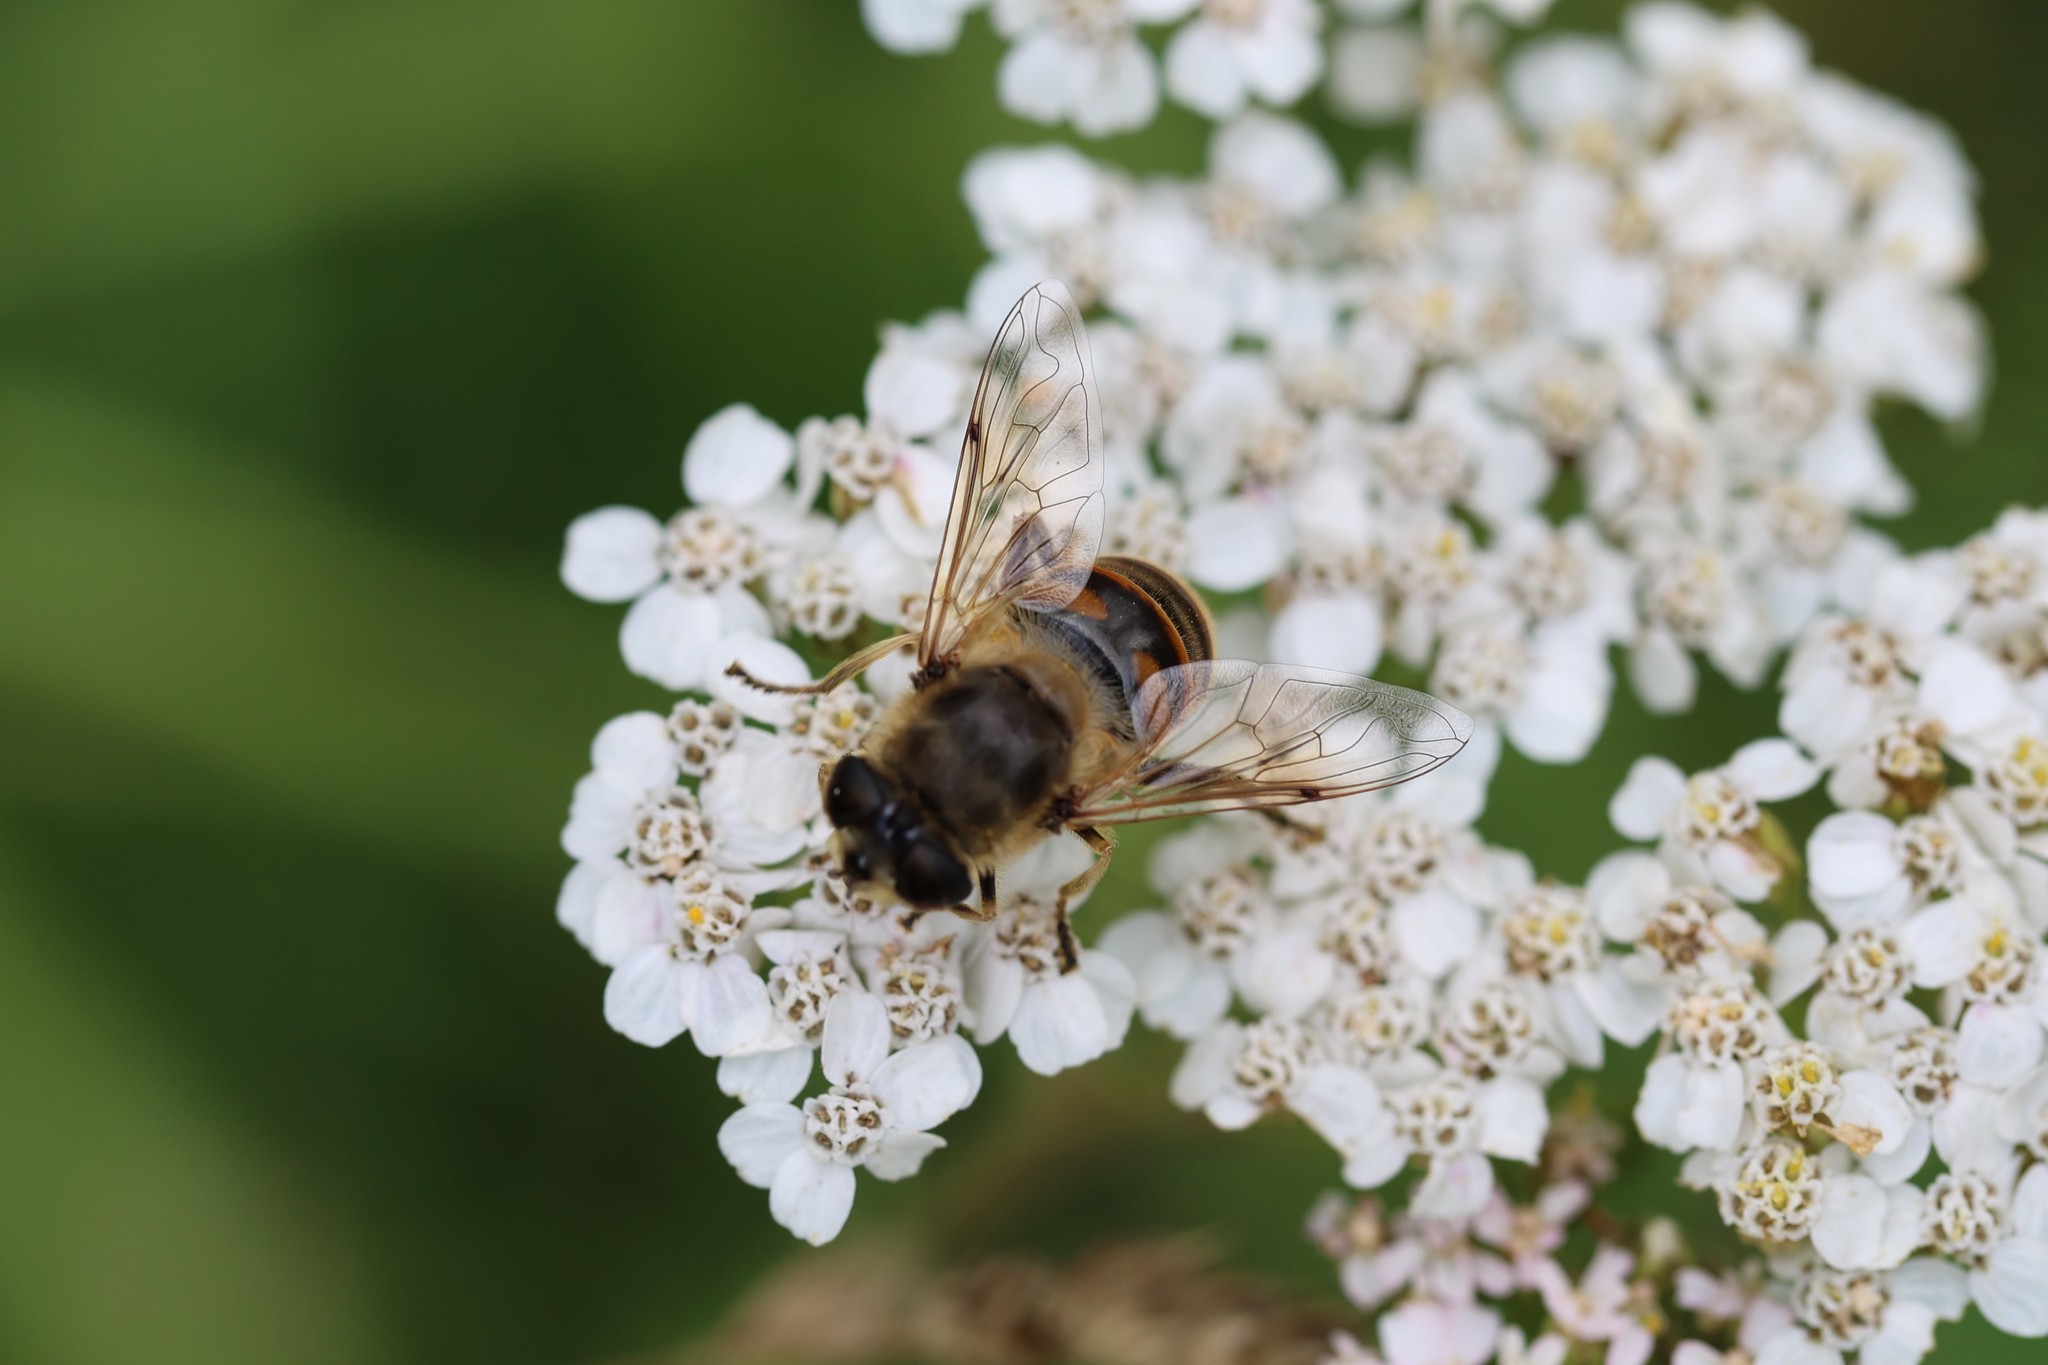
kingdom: Animalia
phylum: Arthropoda
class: Insecta
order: Diptera
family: Syrphidae
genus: Eristalis
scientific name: Eristalis tenax
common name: Drone fly
